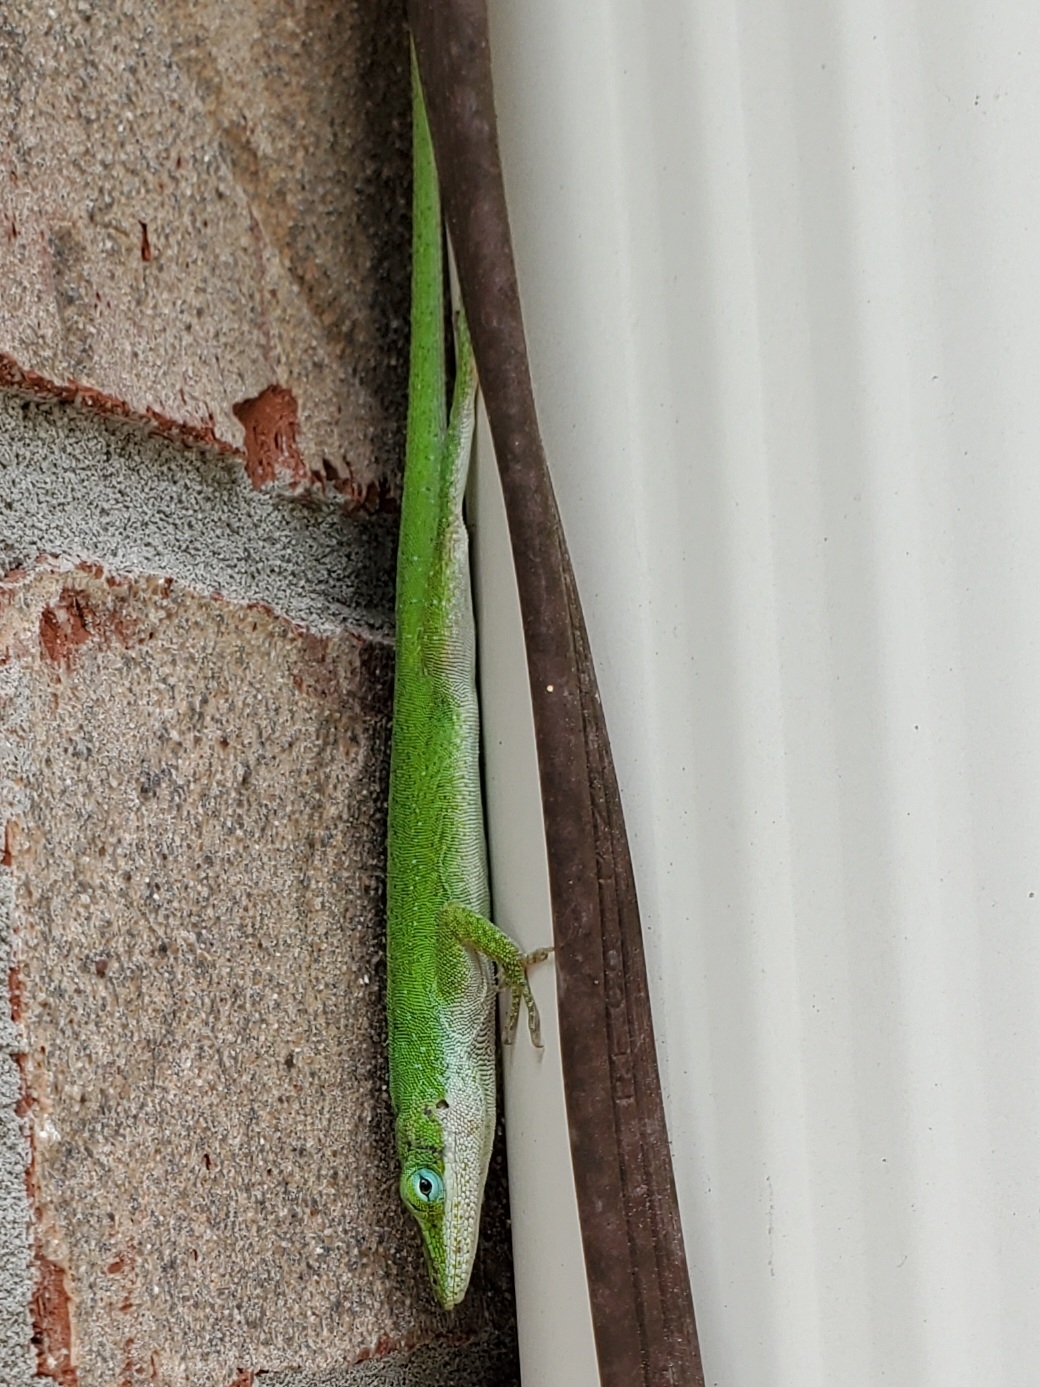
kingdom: Animalia
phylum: Chordata
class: Squamata
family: Dactyloidae
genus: Anolis
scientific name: Anolis carolinensis
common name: Green anole
